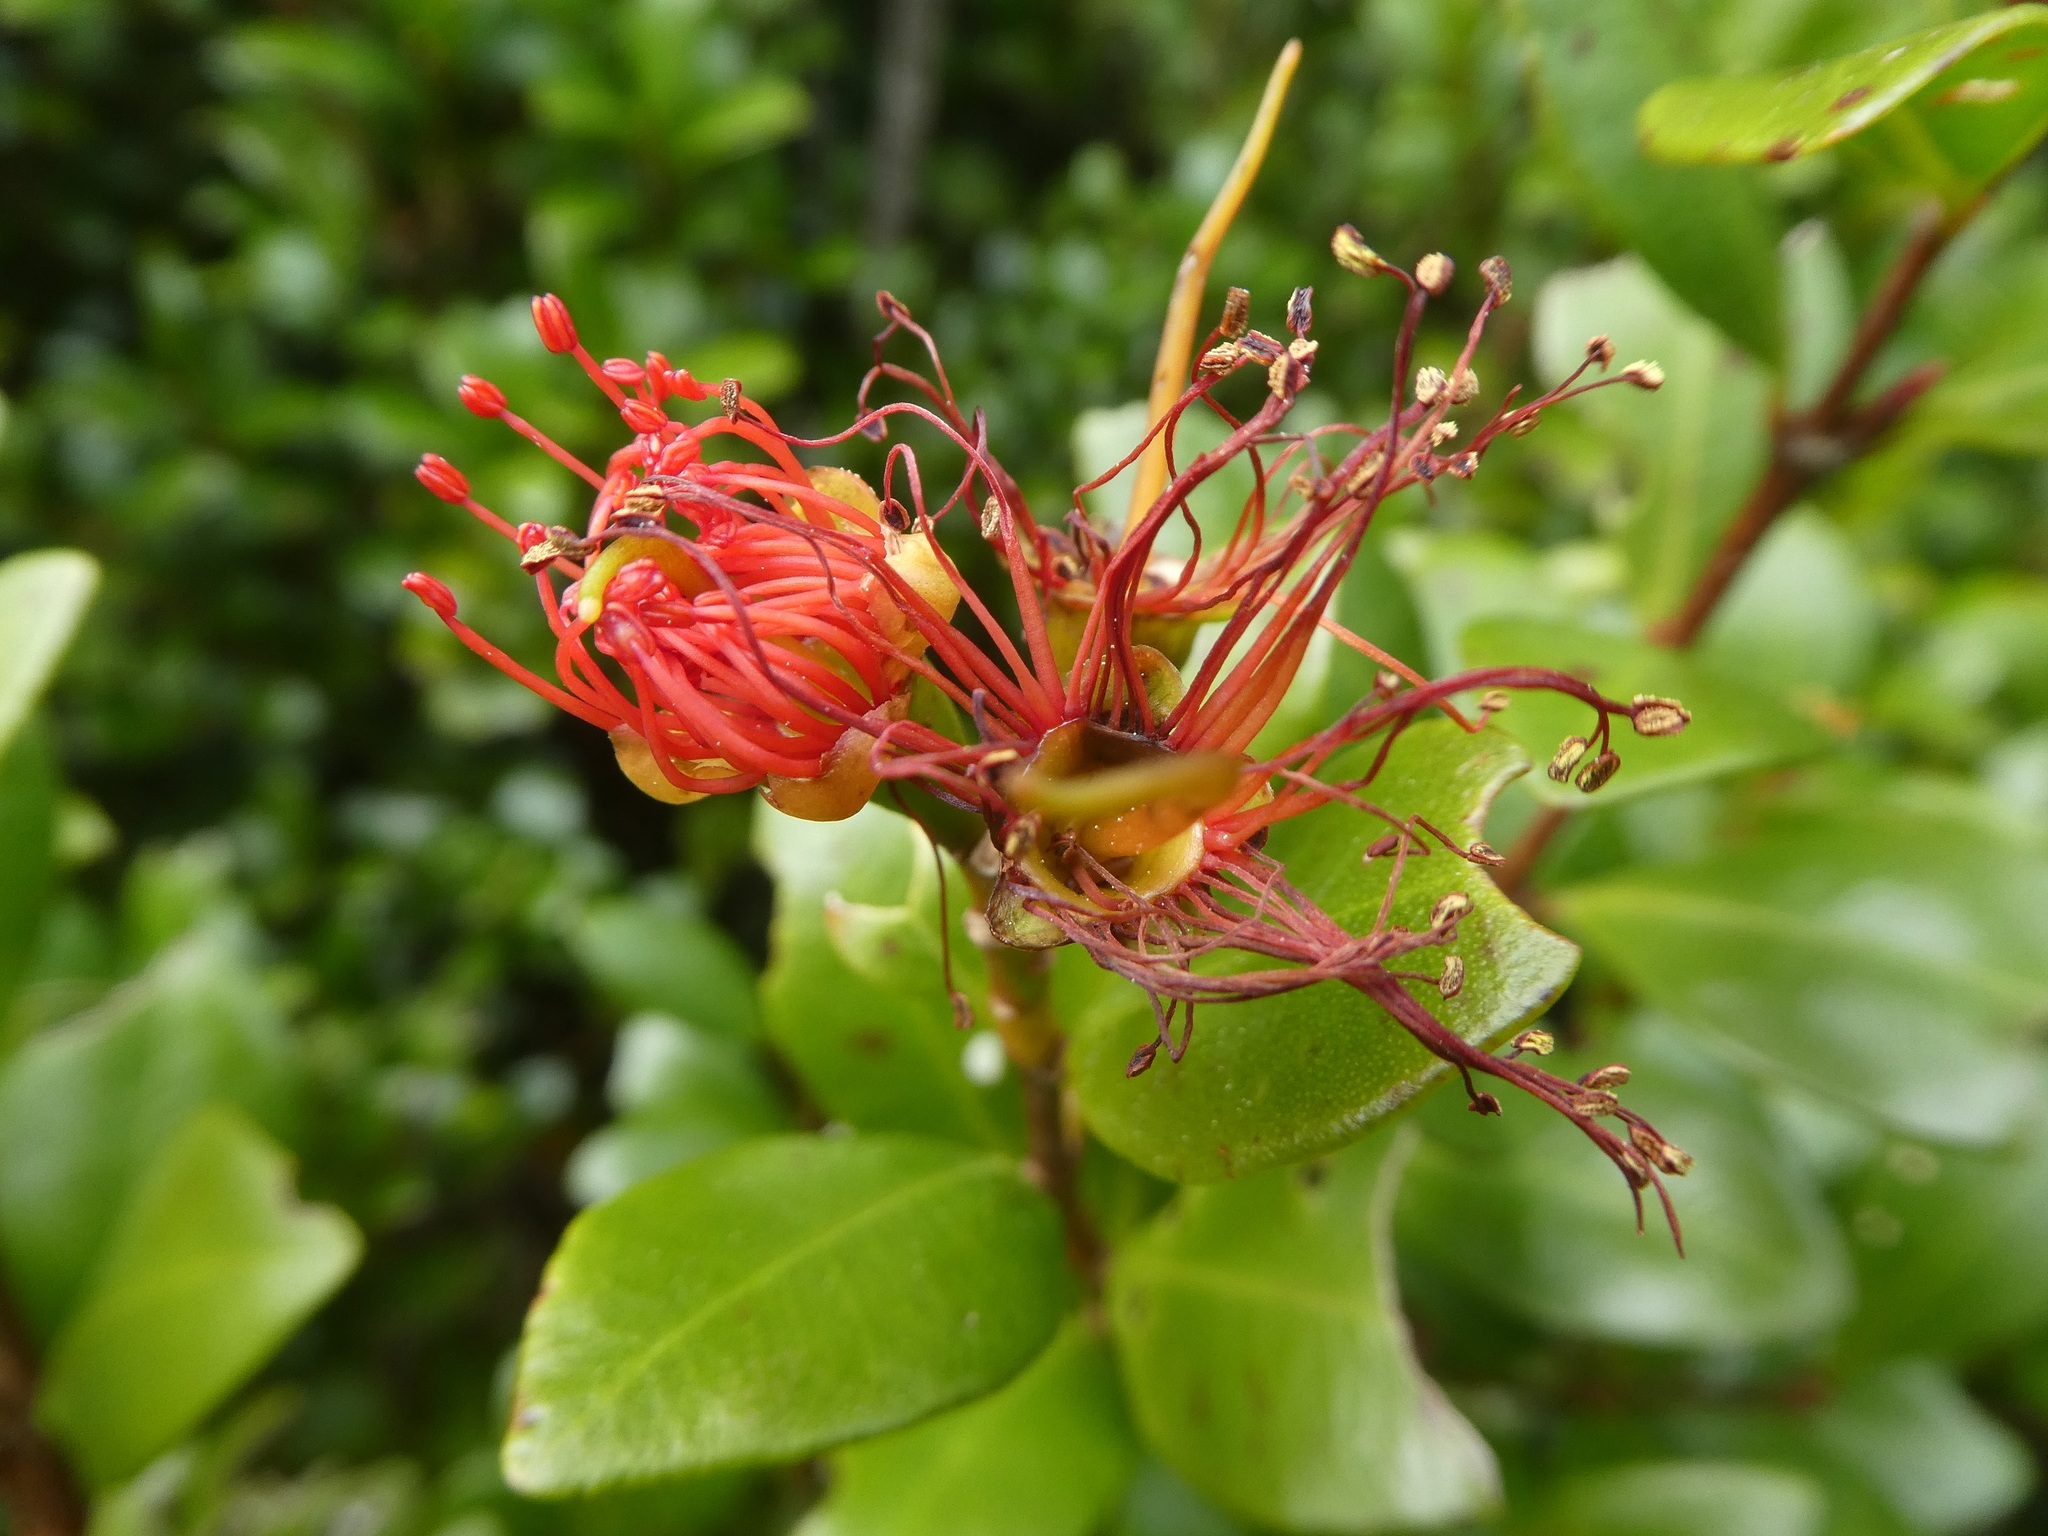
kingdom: Plantae
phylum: Tracheophyta
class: Magnoliopsida
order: Myrtales
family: Myrtaceae
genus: Metrosideros
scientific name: Metrosideros fulgens
